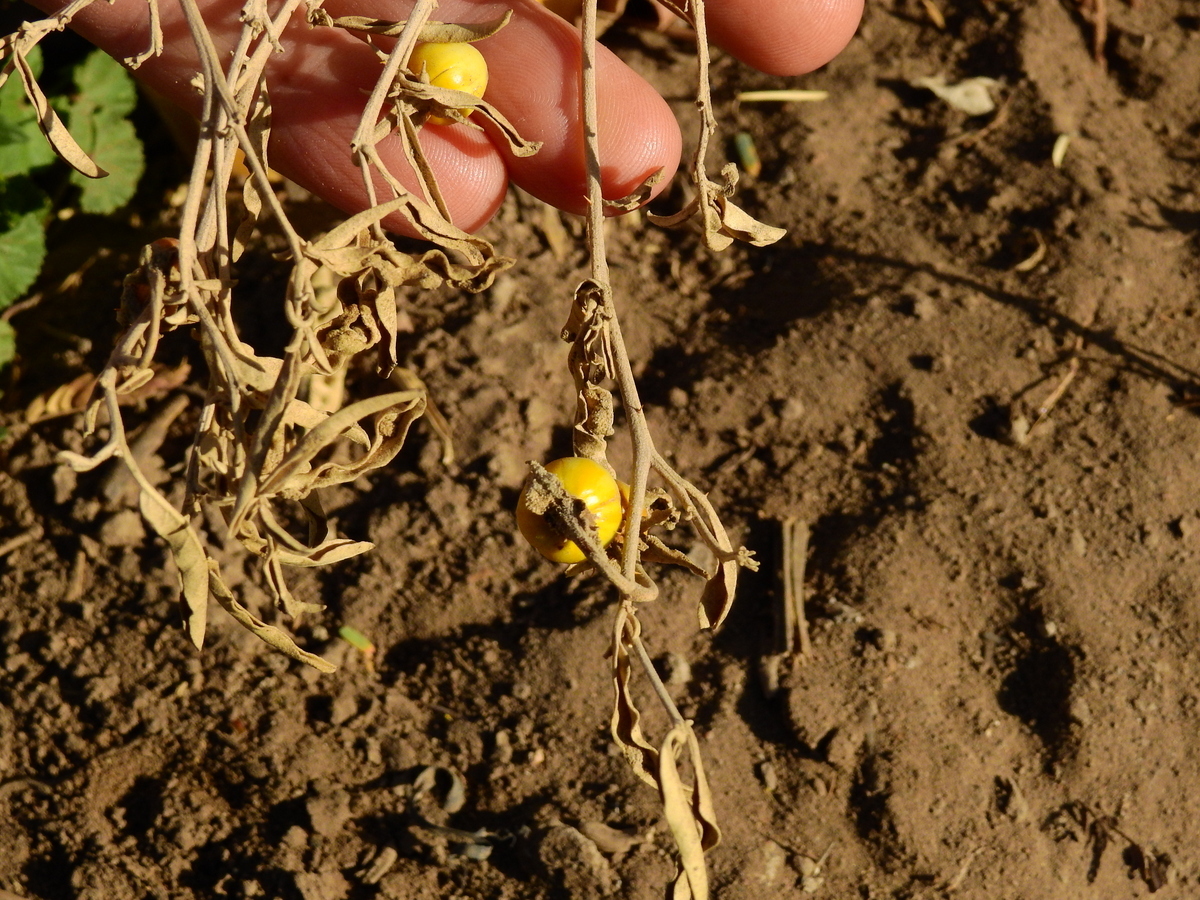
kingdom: Plantae
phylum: Tracheophyta
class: Magnoliopsida
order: Solanales
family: Solanaceae
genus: Solanum
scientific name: Solanum elaeagnifolium
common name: Silverleaf nightshade
